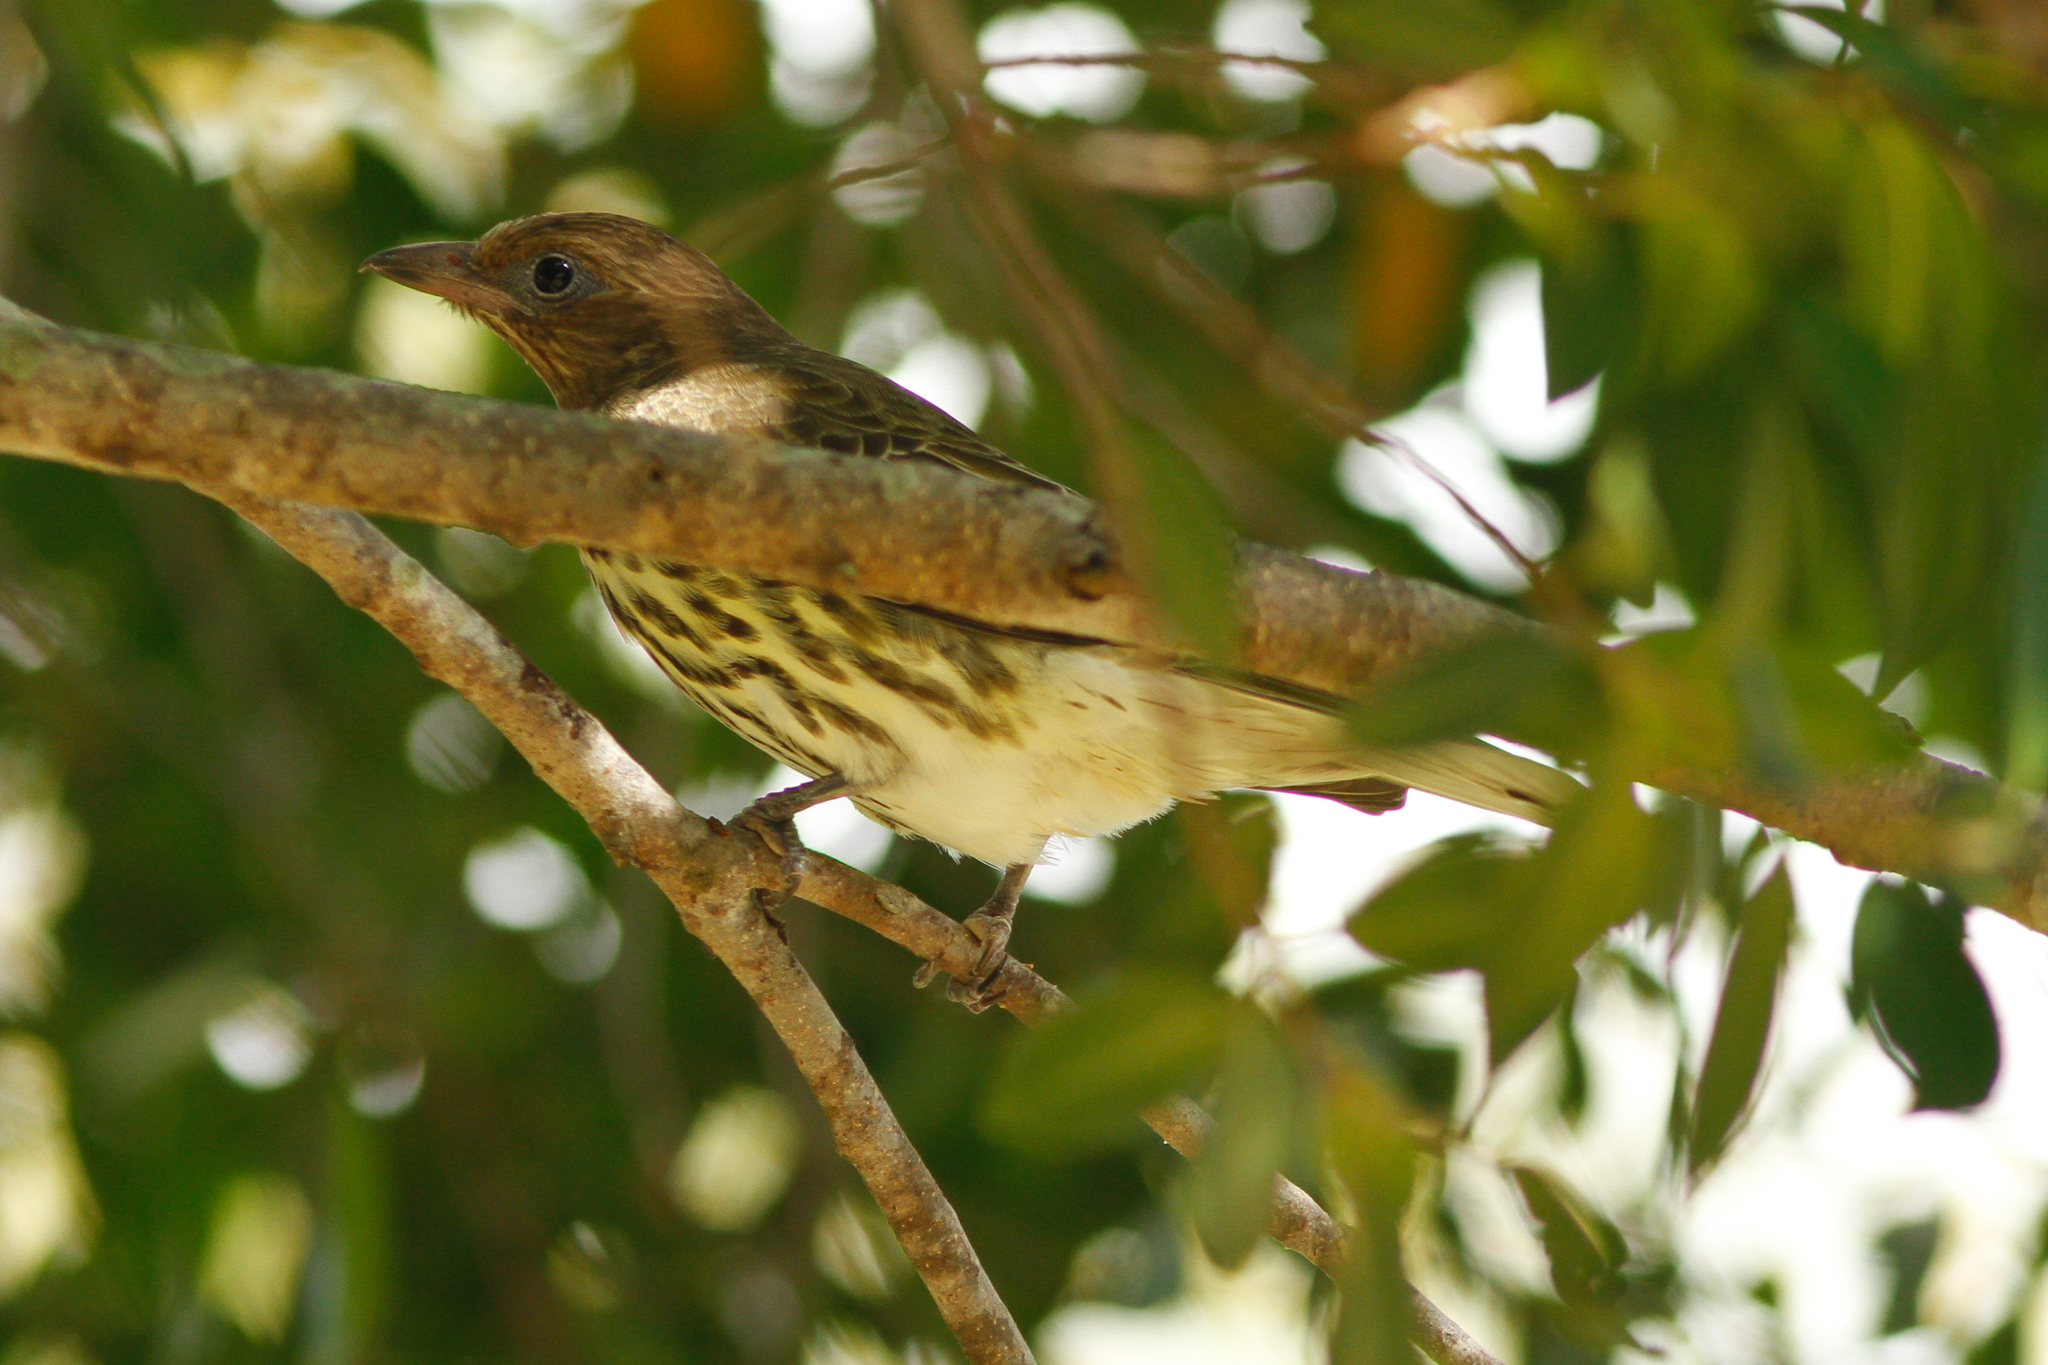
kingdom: Animalia
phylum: Chordata
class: Aves
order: Passeriformes
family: Oriolidae
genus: Sphecotheres
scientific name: Sphecotheres vieilloti
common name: Australasian figbird
